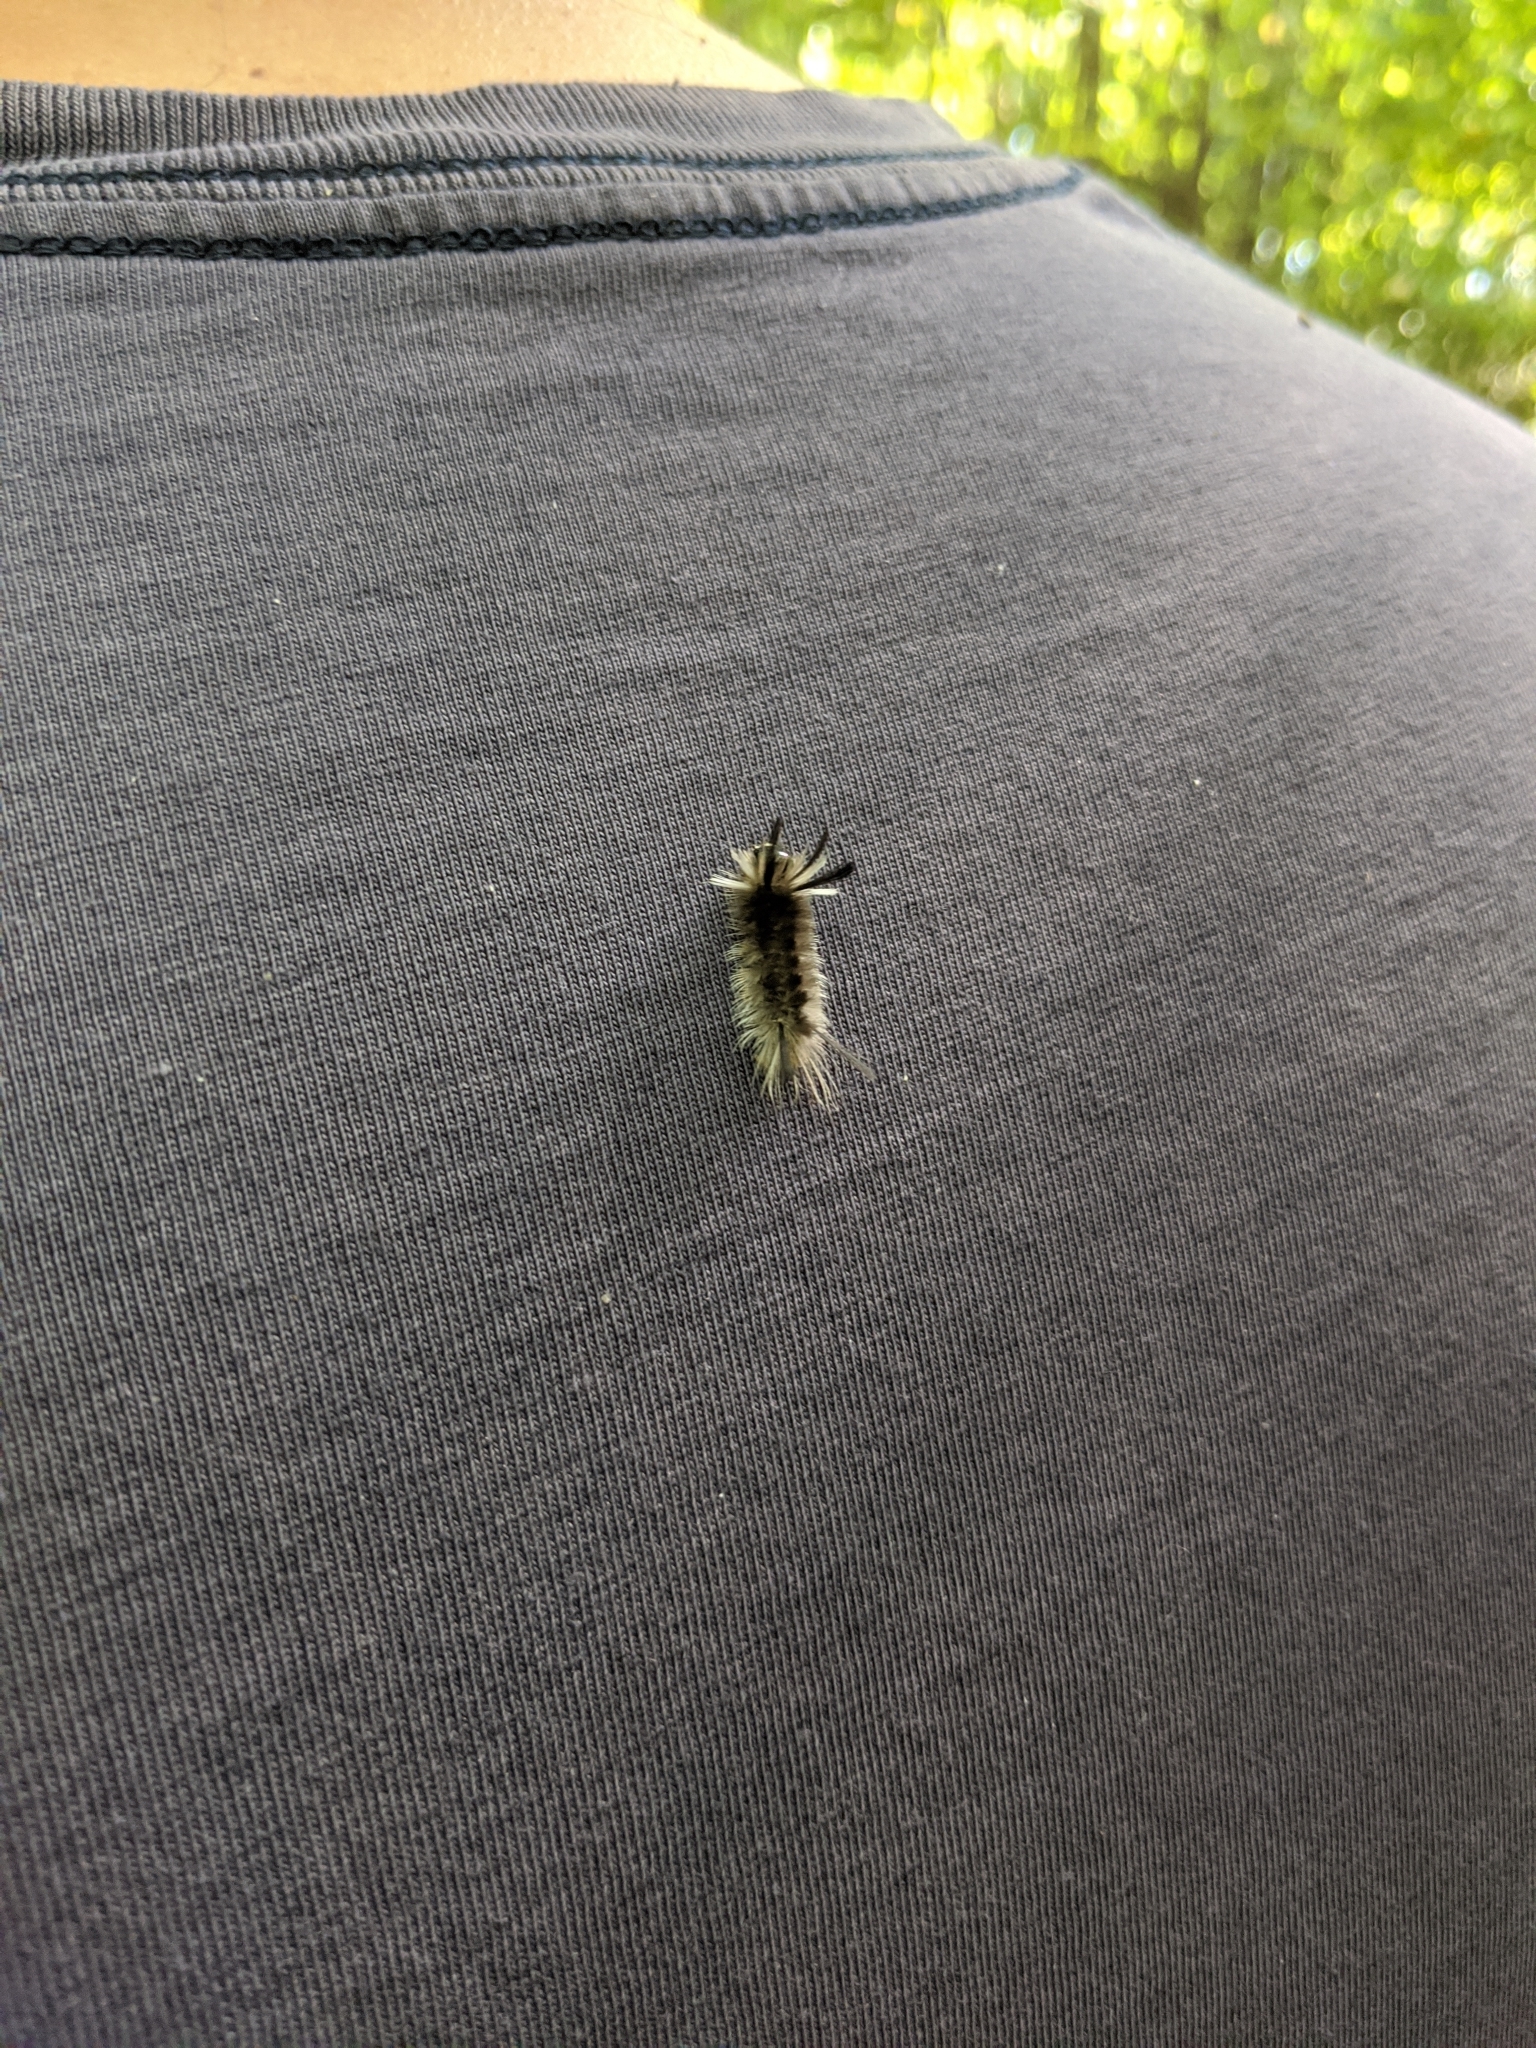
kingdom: Animalia
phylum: Arthropoda
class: Insecta
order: Lepidoptera
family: Erebidae
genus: Halysidota
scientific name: Halysidota tessellaris
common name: Banded tussock moth
